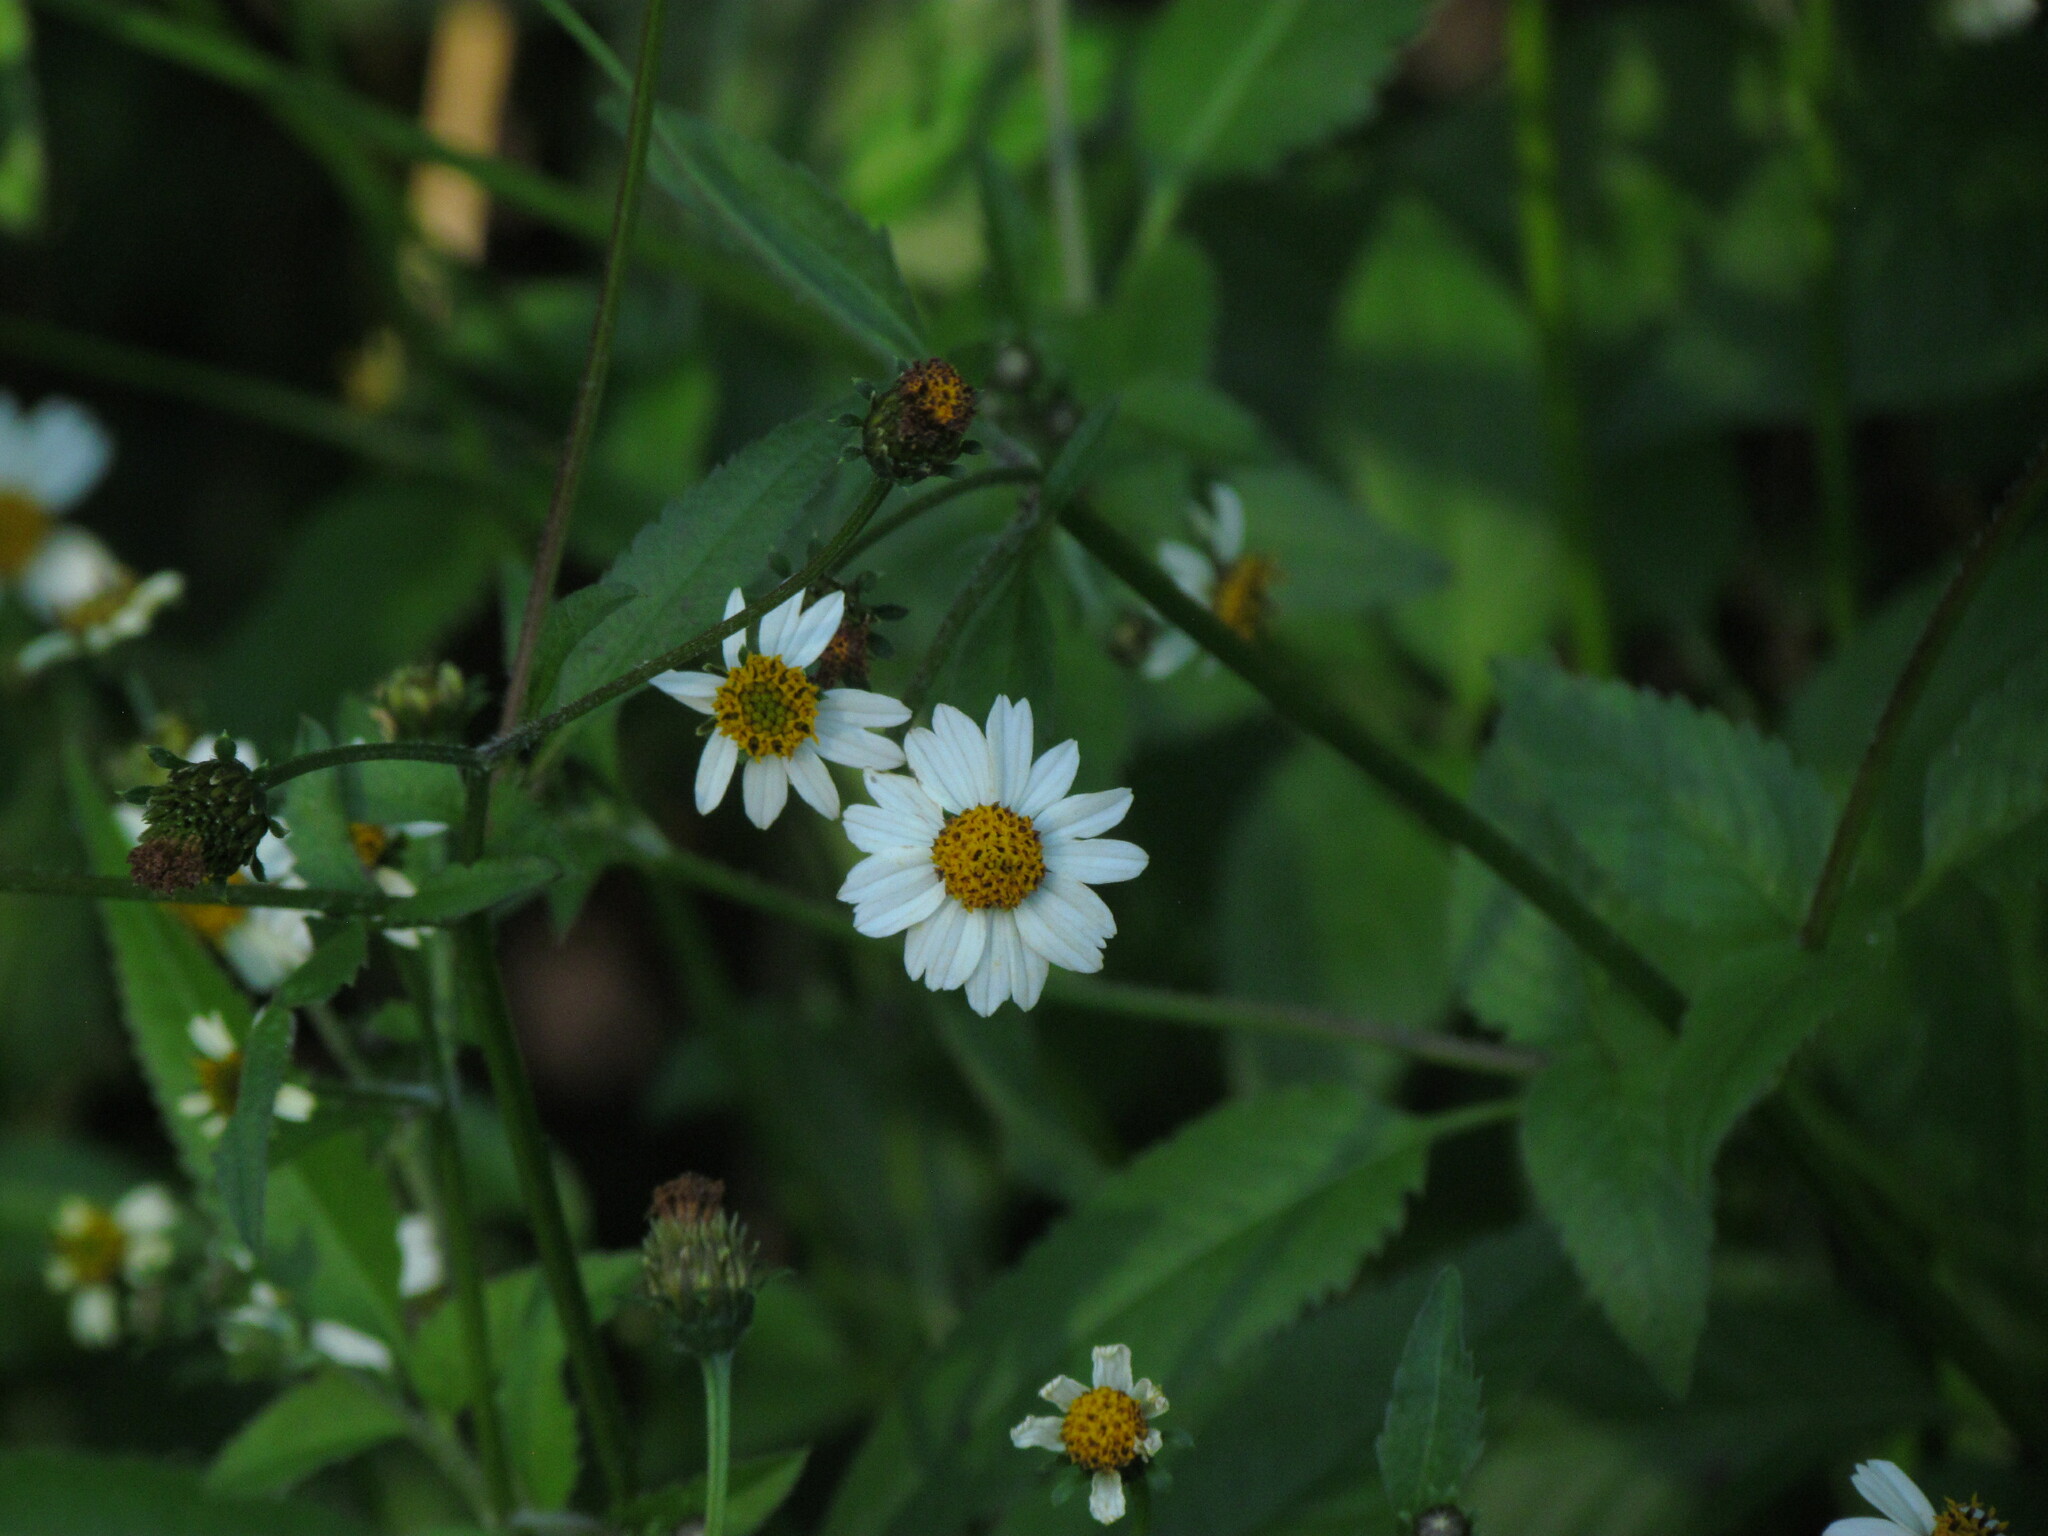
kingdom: Plantae
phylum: Tracheophyta
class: Magnoliopsida
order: Asterales
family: Asteraceae
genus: Bidens
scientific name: Bidens pilosa
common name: Black-jack
